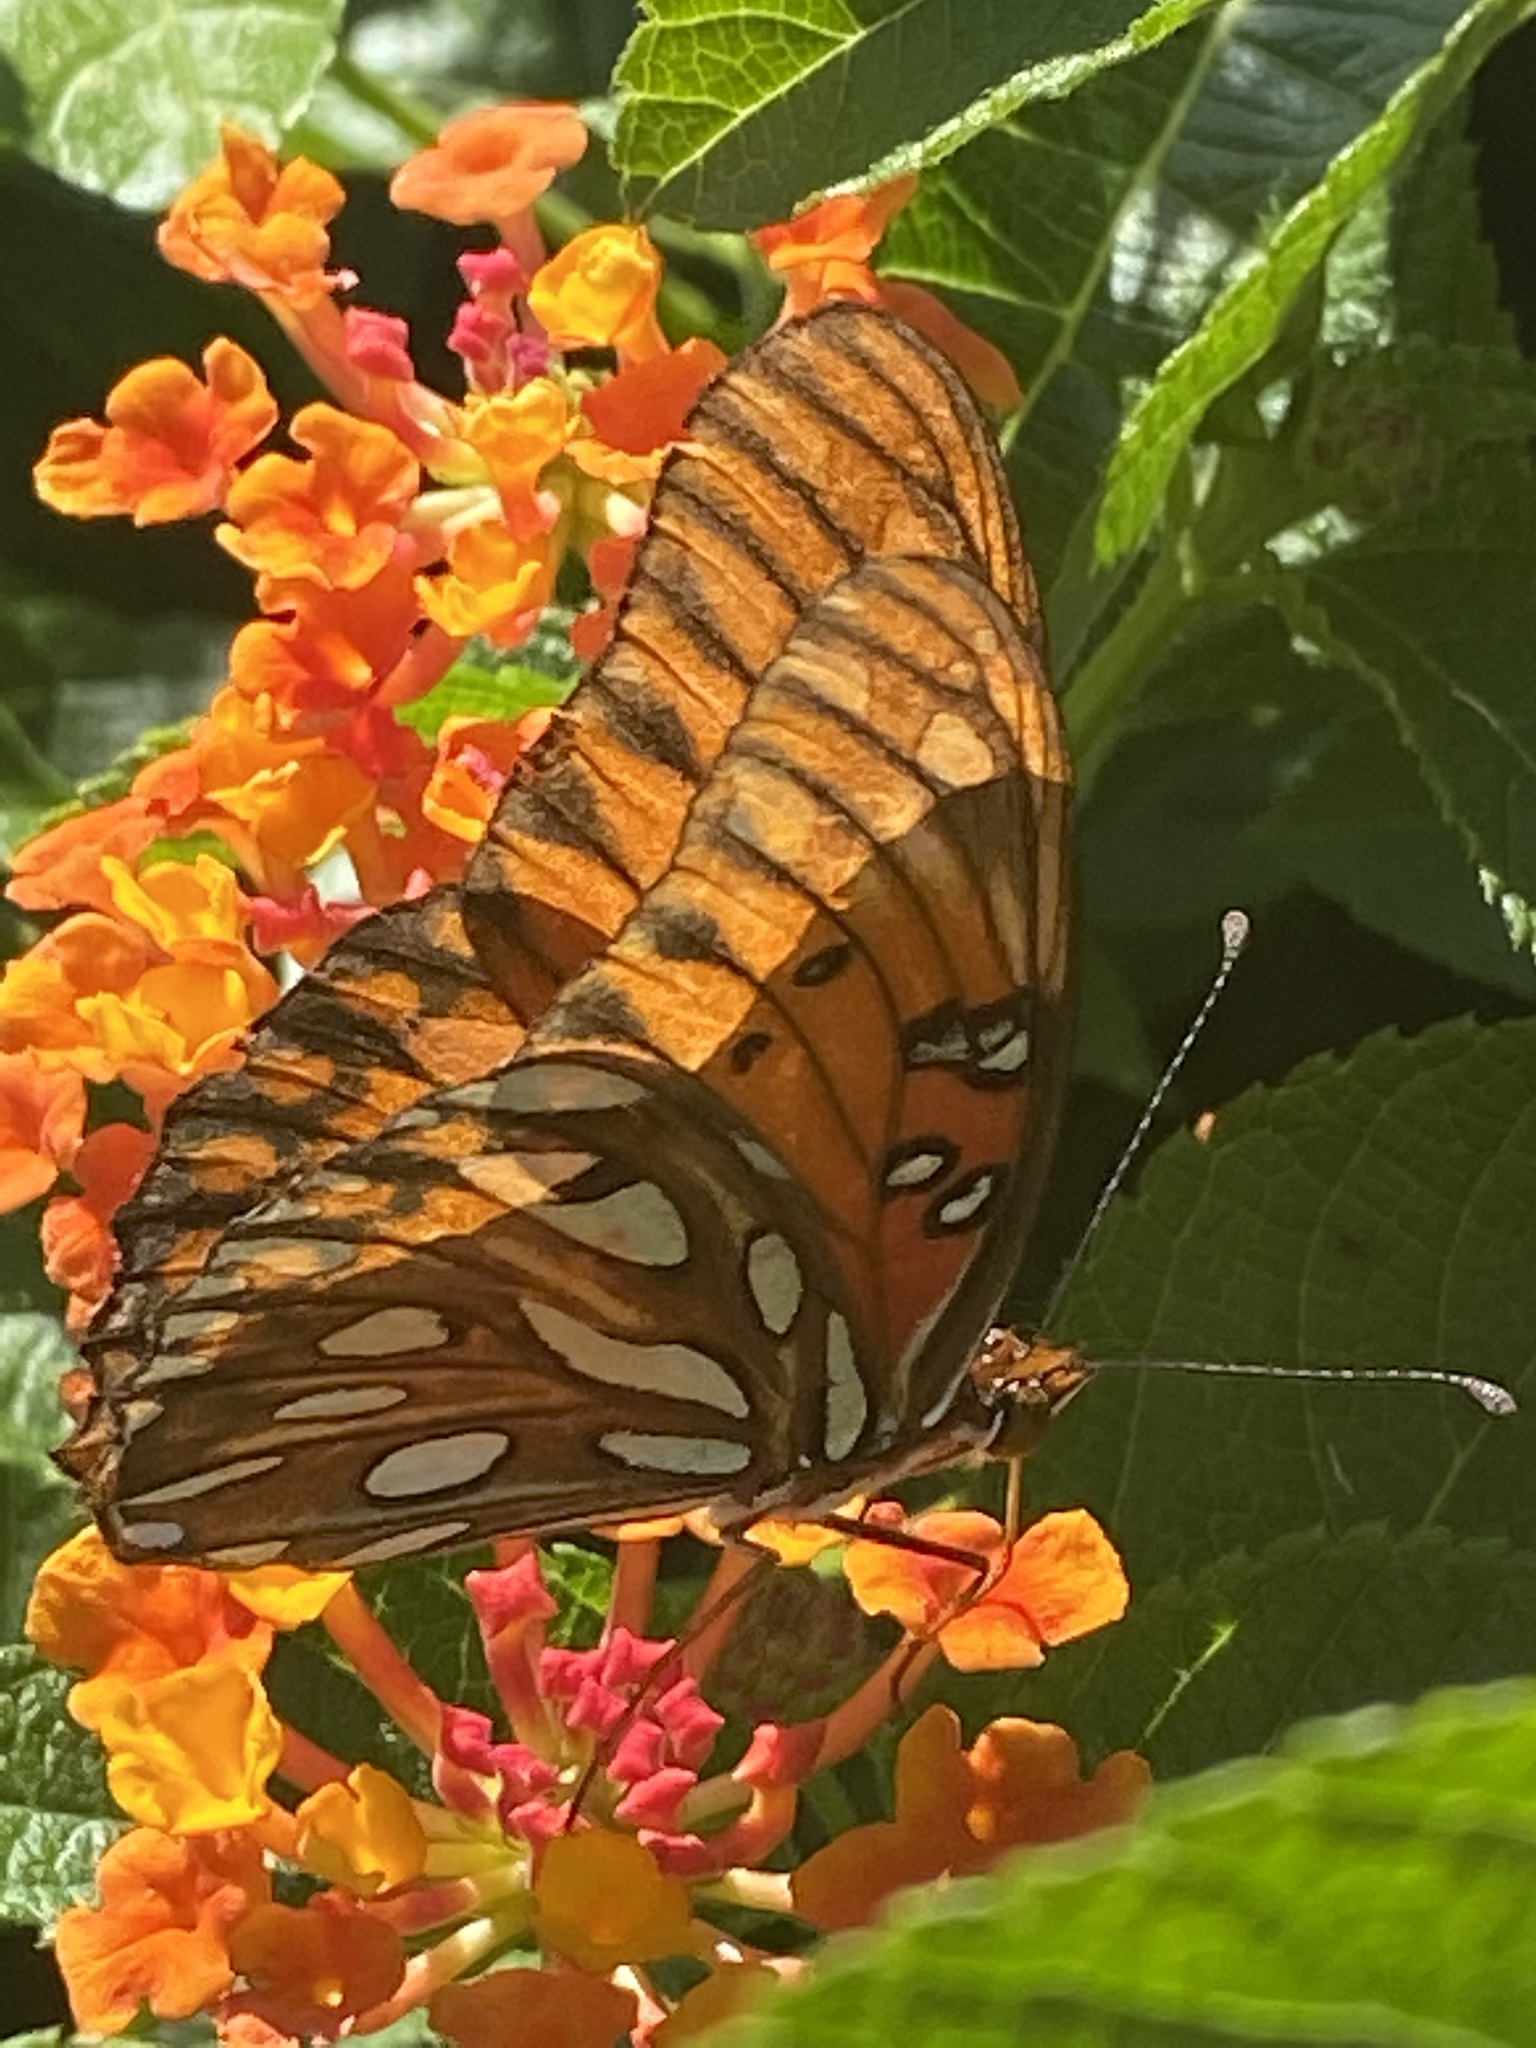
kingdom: Animalia
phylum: Arthropoda
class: Insecta
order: Lepidoptera
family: Nymphalidae
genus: Dione
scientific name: Dione vanillae
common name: Gulf fritillary
